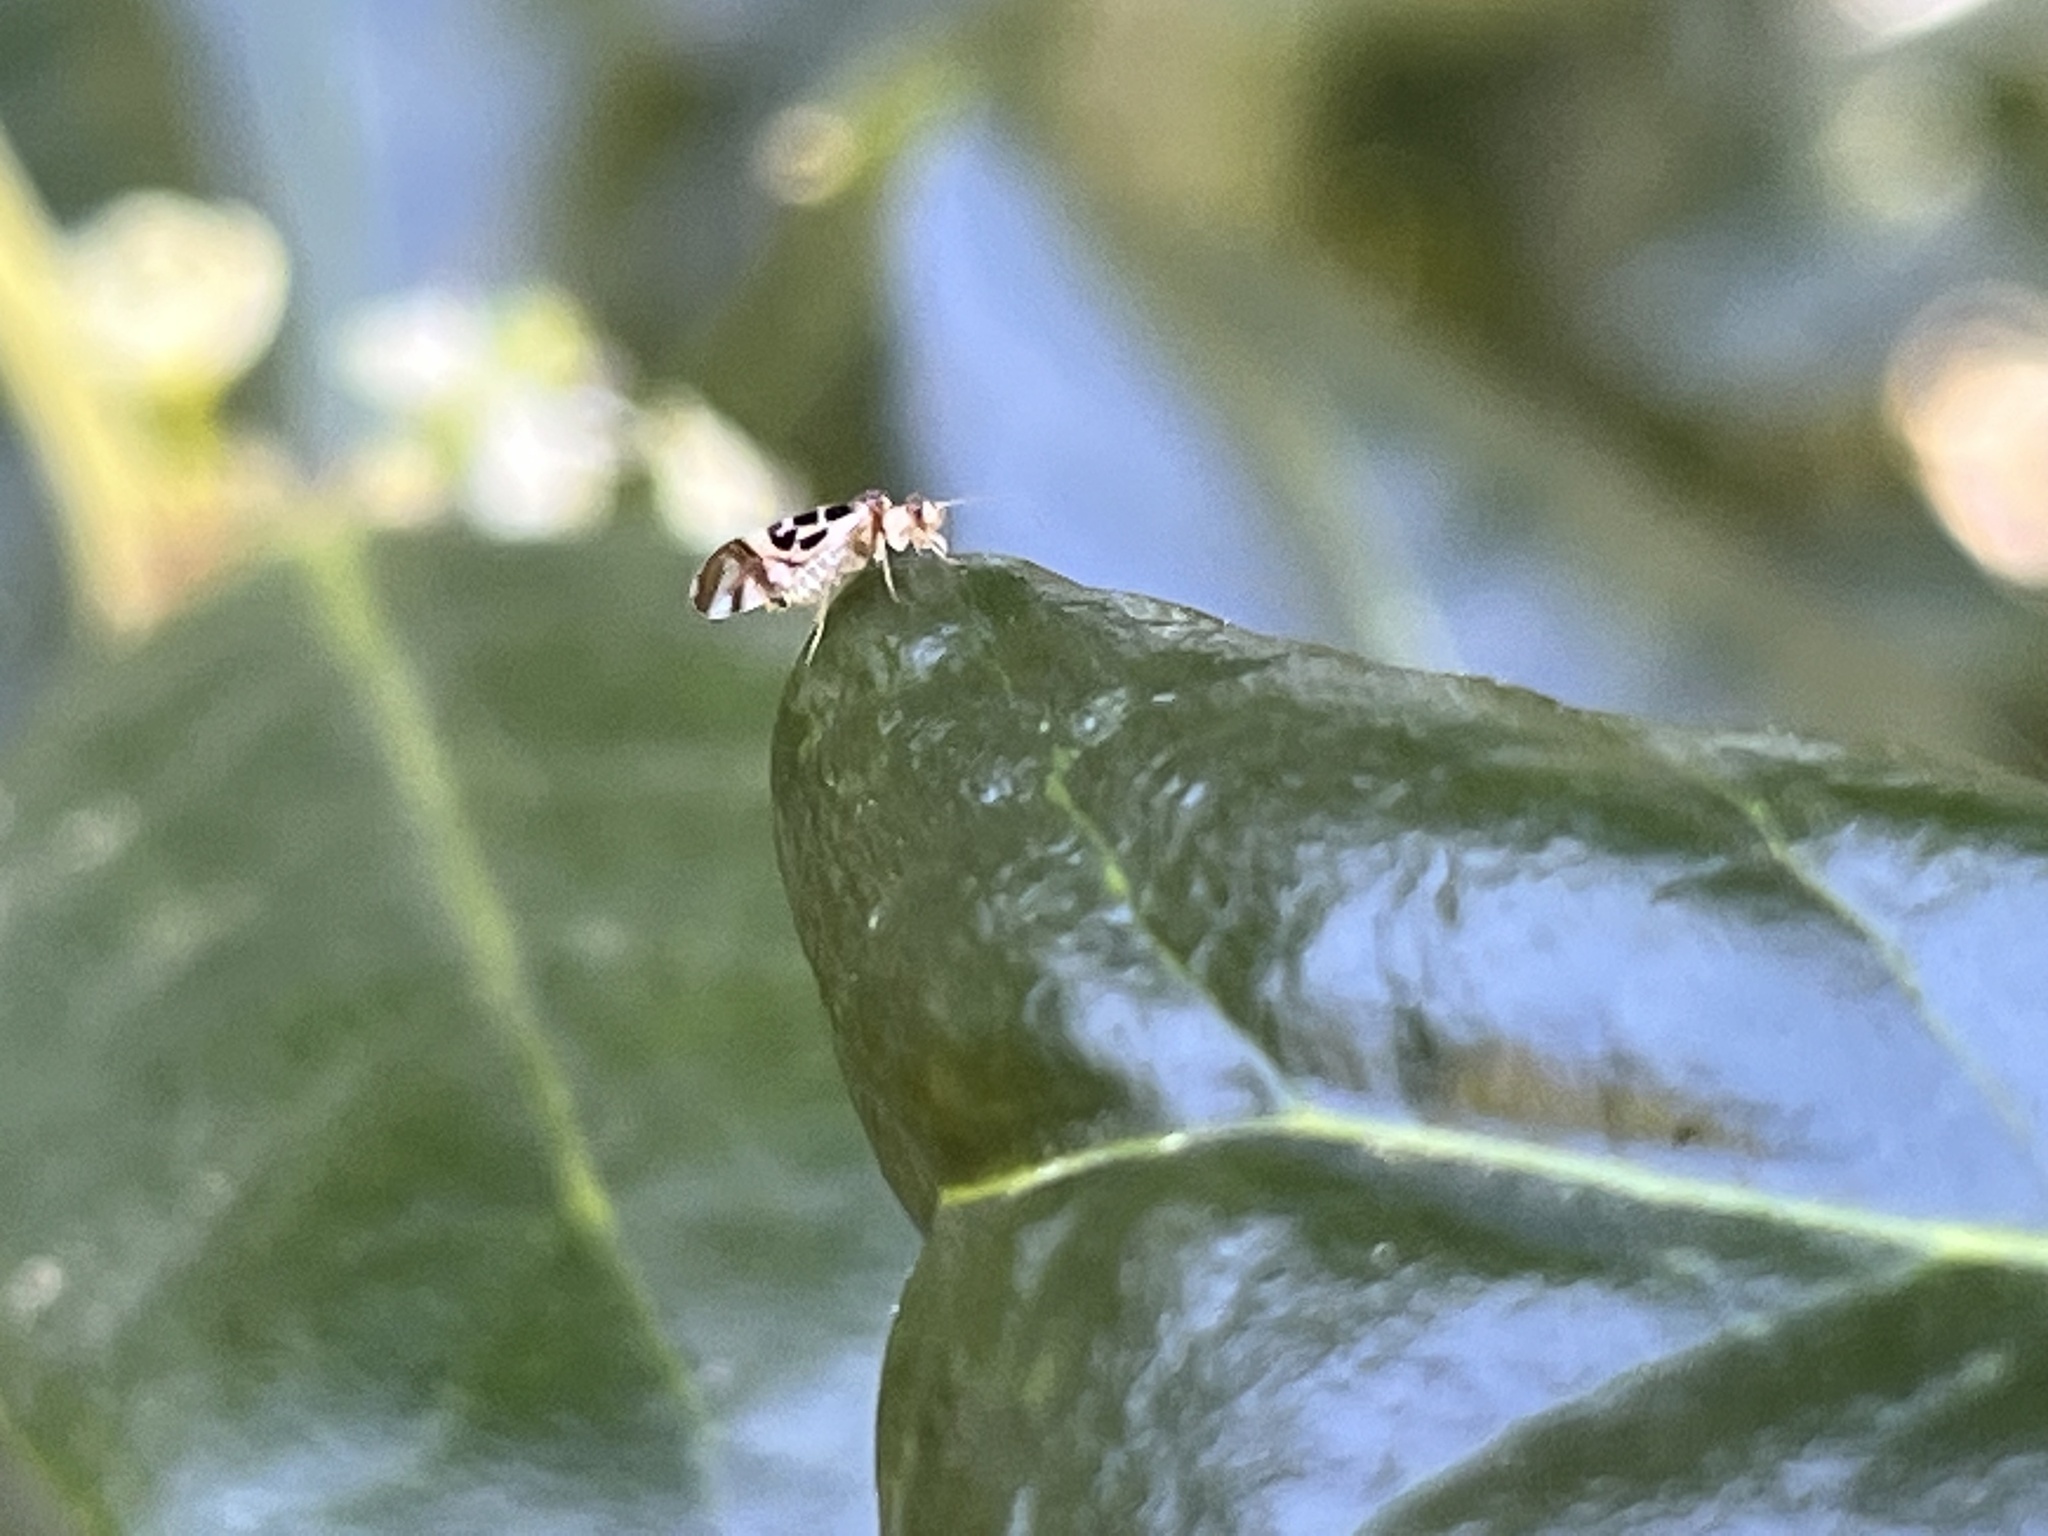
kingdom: Animalia
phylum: Arthropoda
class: Insecta
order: Psocodea
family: Stenopsocidae
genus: Graphopsocus
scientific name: Graphopsocus cruciatus
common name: Lizard bark louse
